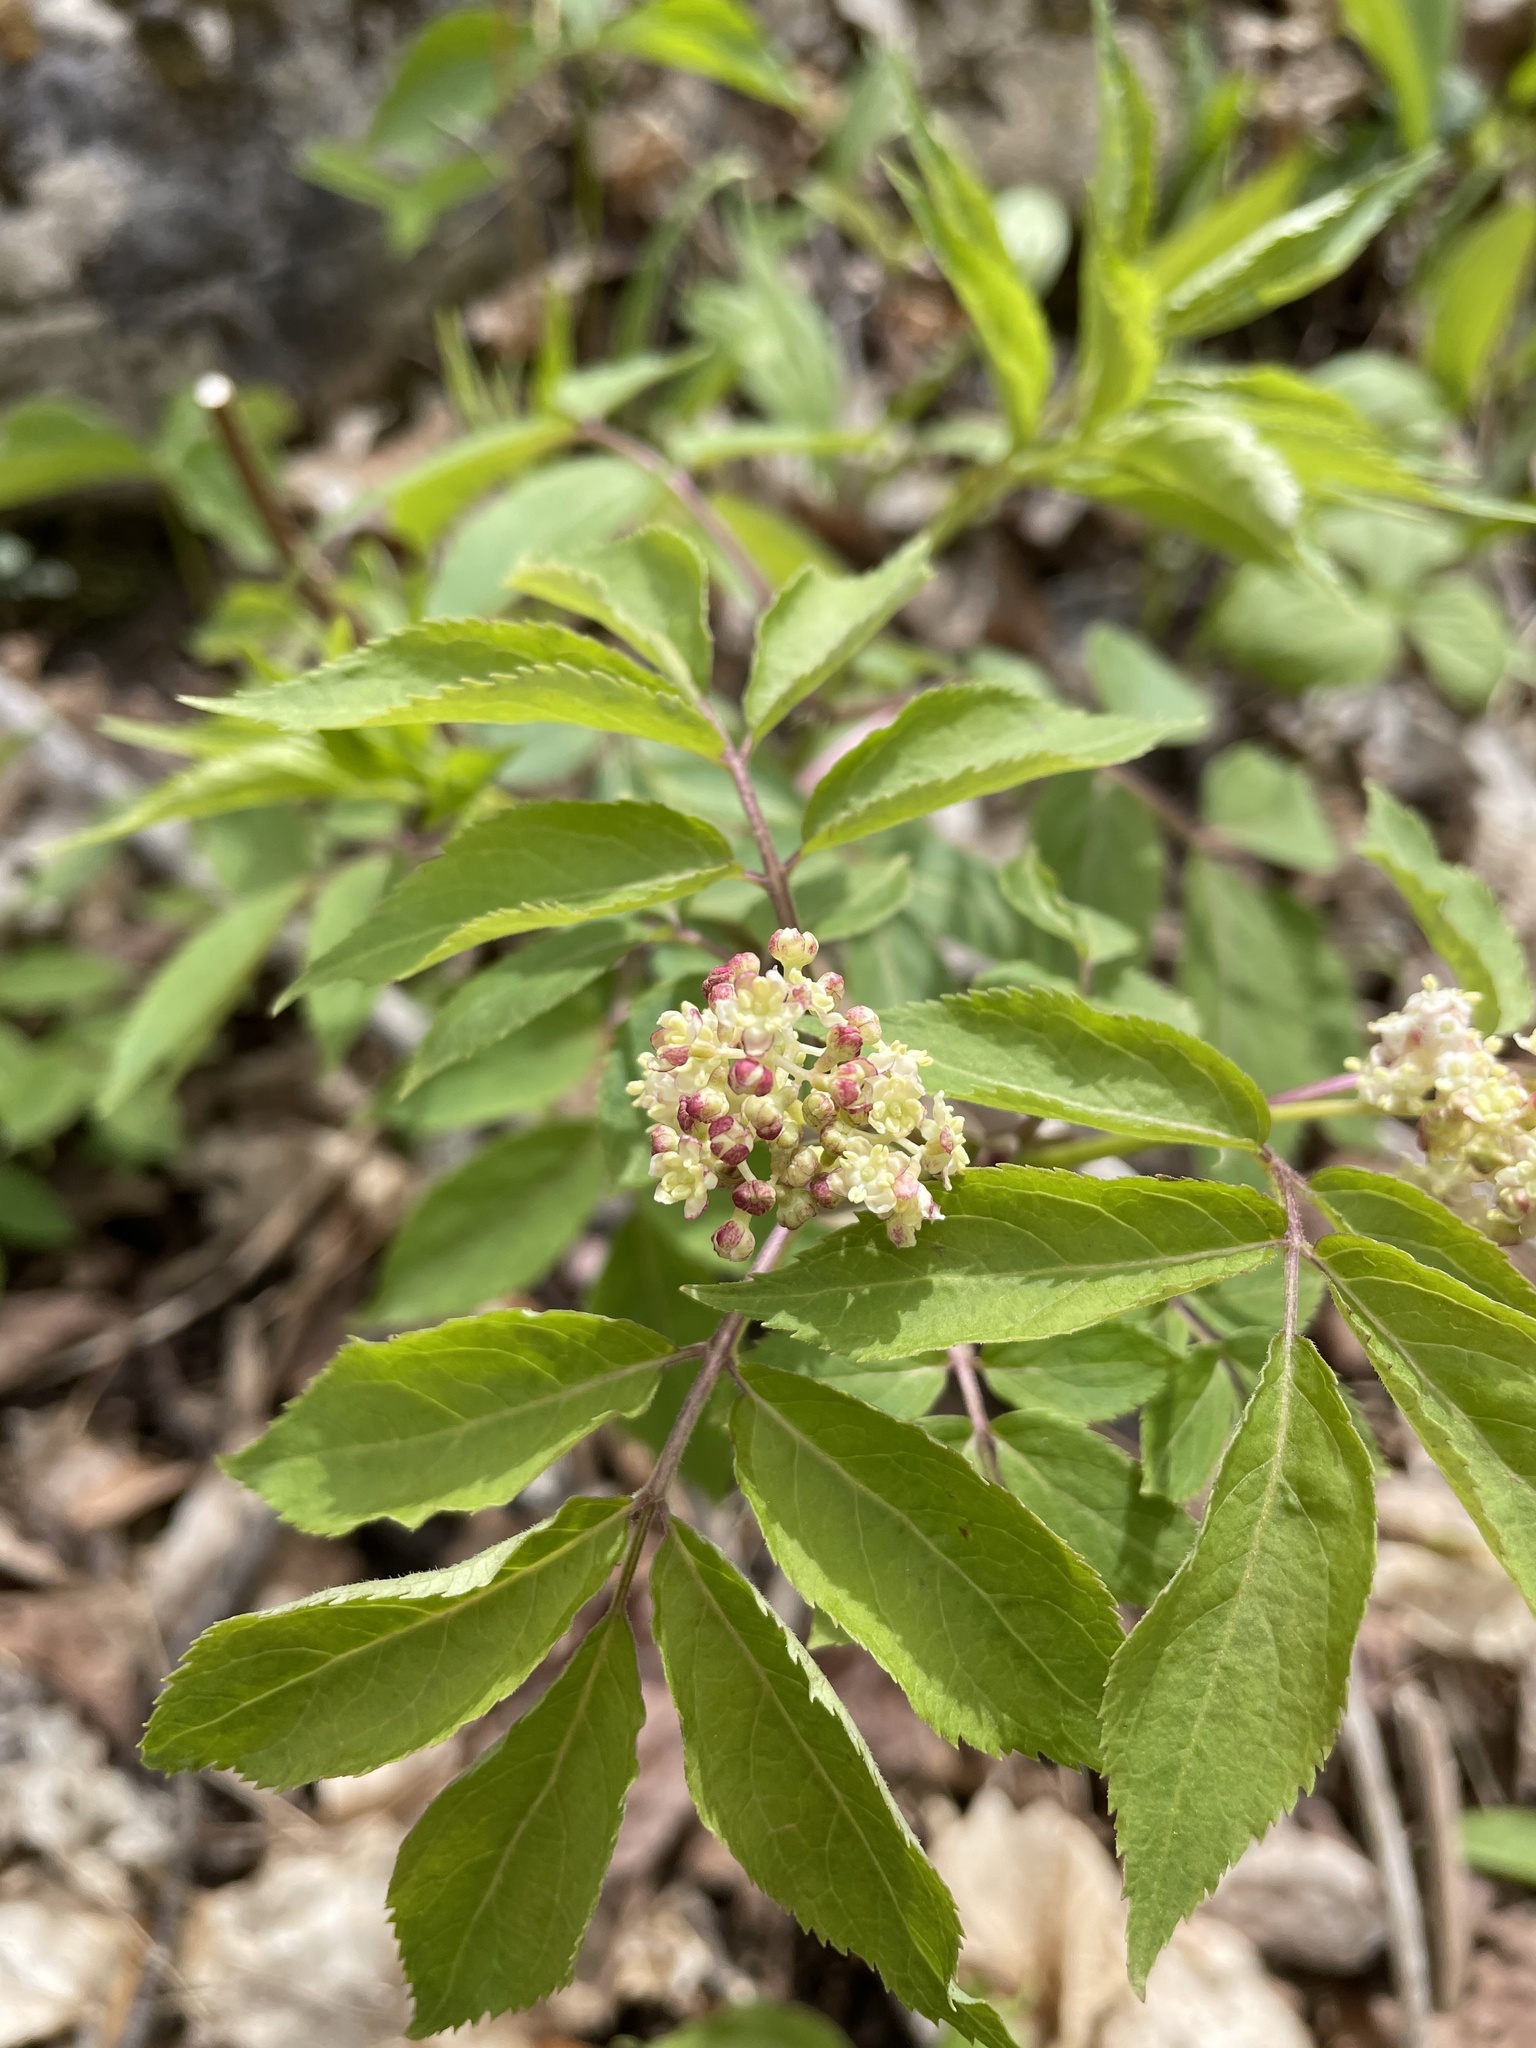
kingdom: Plantae
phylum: Tracheophyta
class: Magnoliopsida
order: Dipsacales
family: Viburnaceae
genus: Sambucus
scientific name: Sambucus racemosa
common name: Red-berried elder
